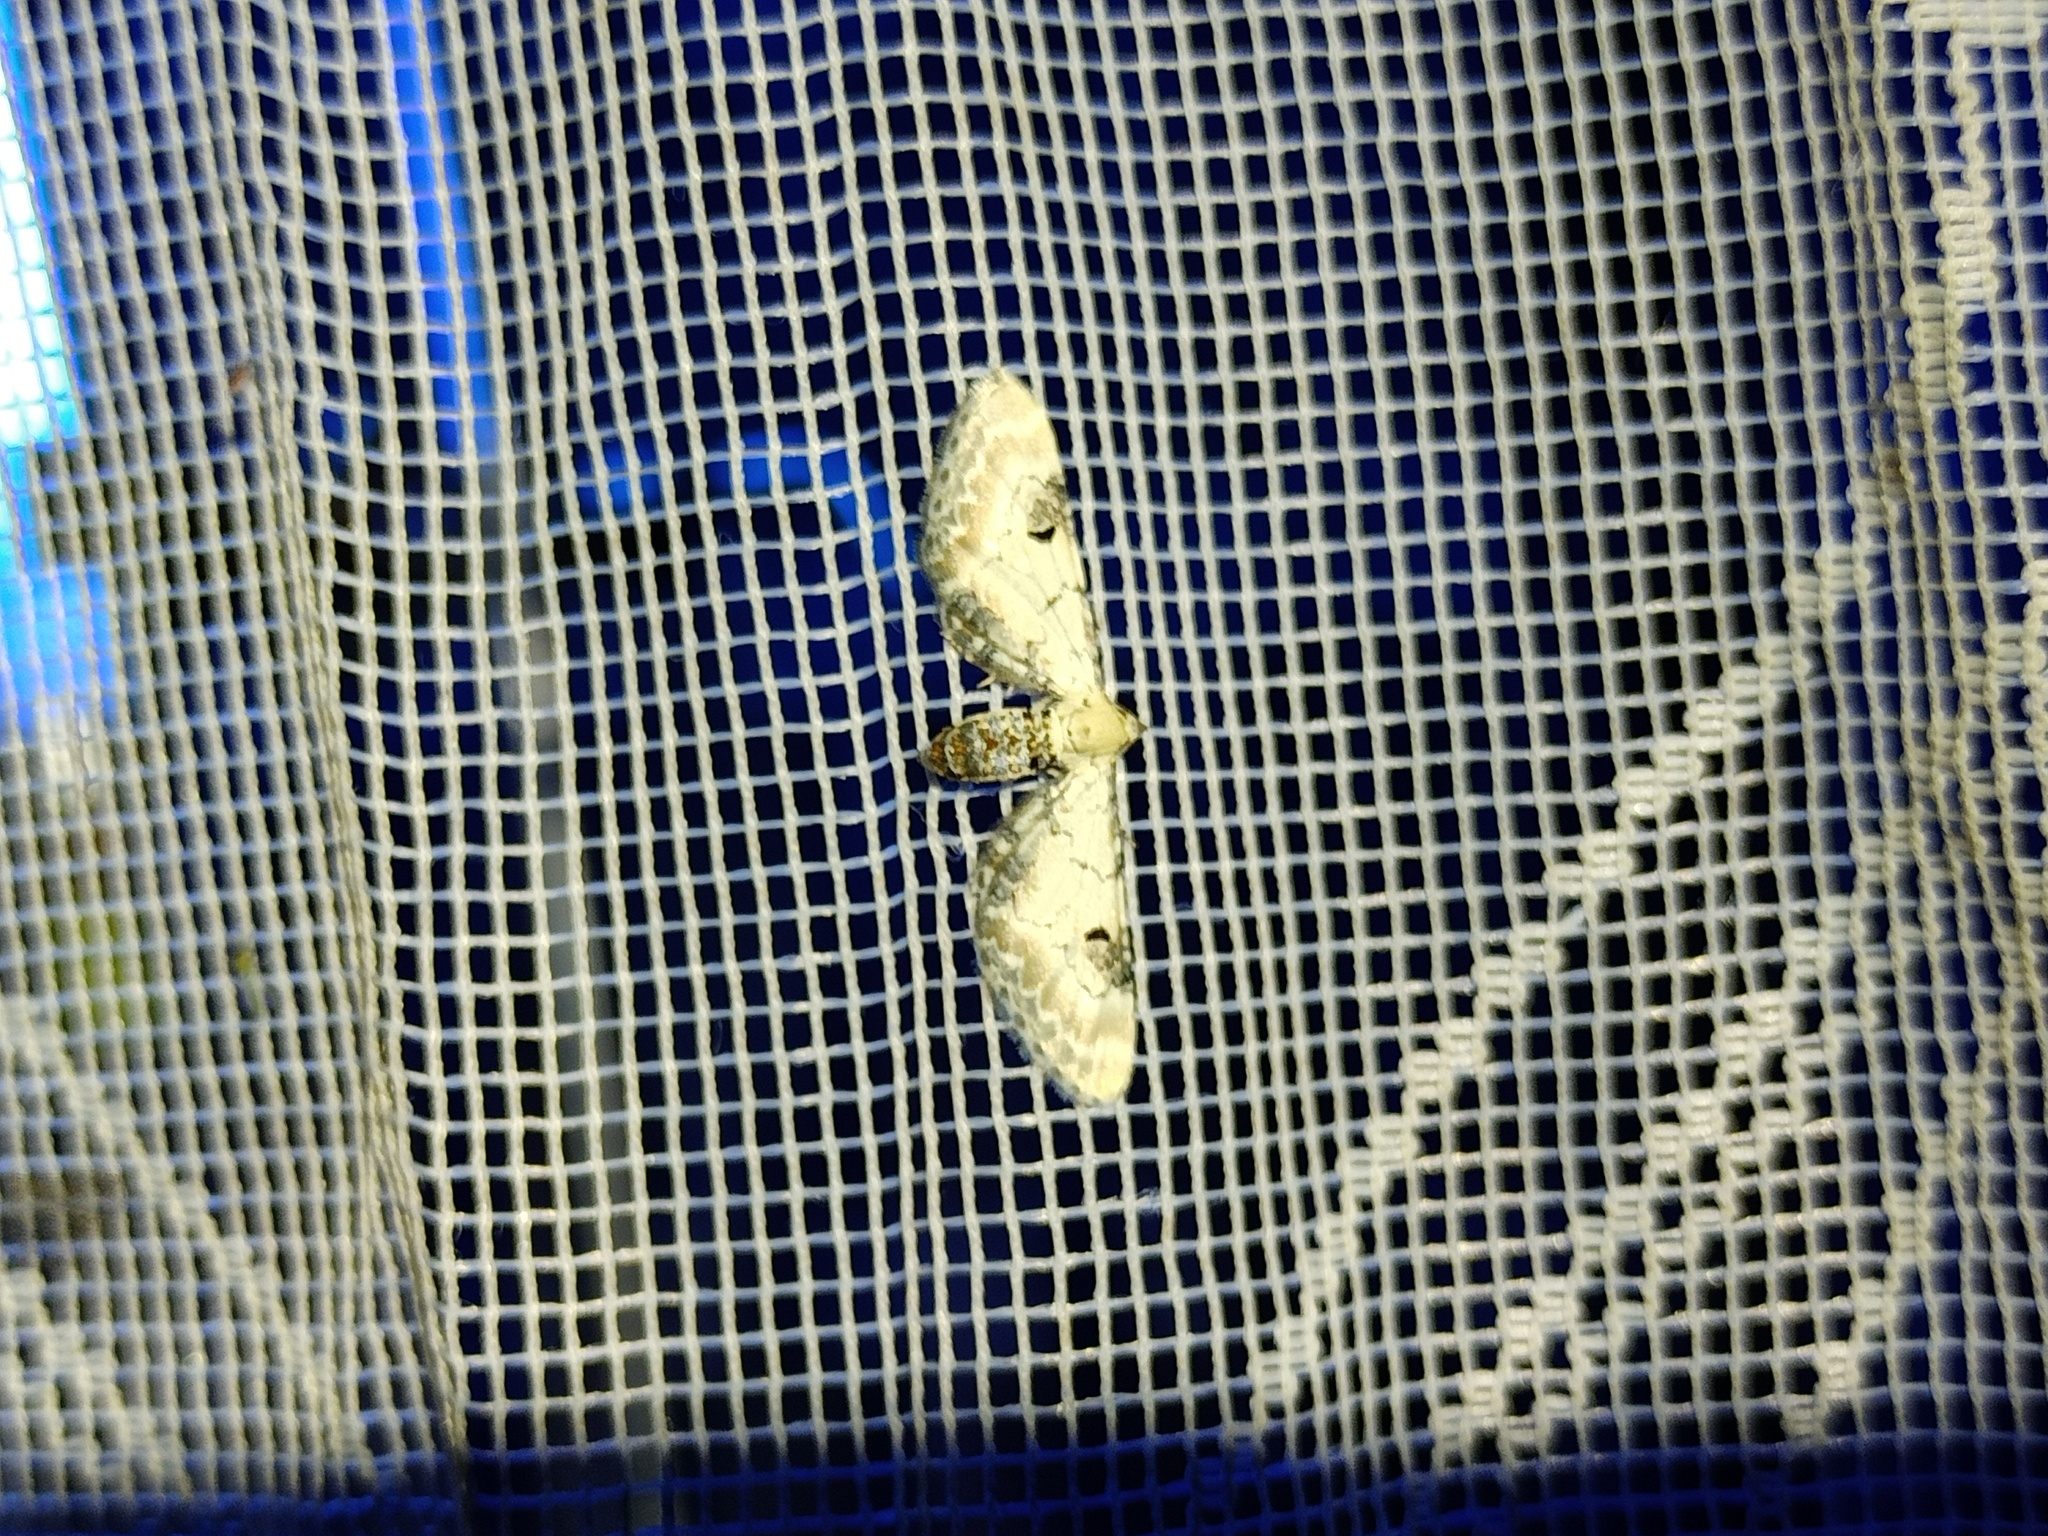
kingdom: Animalia
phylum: Arthropoda
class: Insecta
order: Lepidoptera
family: Geometridae
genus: Eupithecia
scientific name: Eupithecia centaureata
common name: Lime-speck pug
